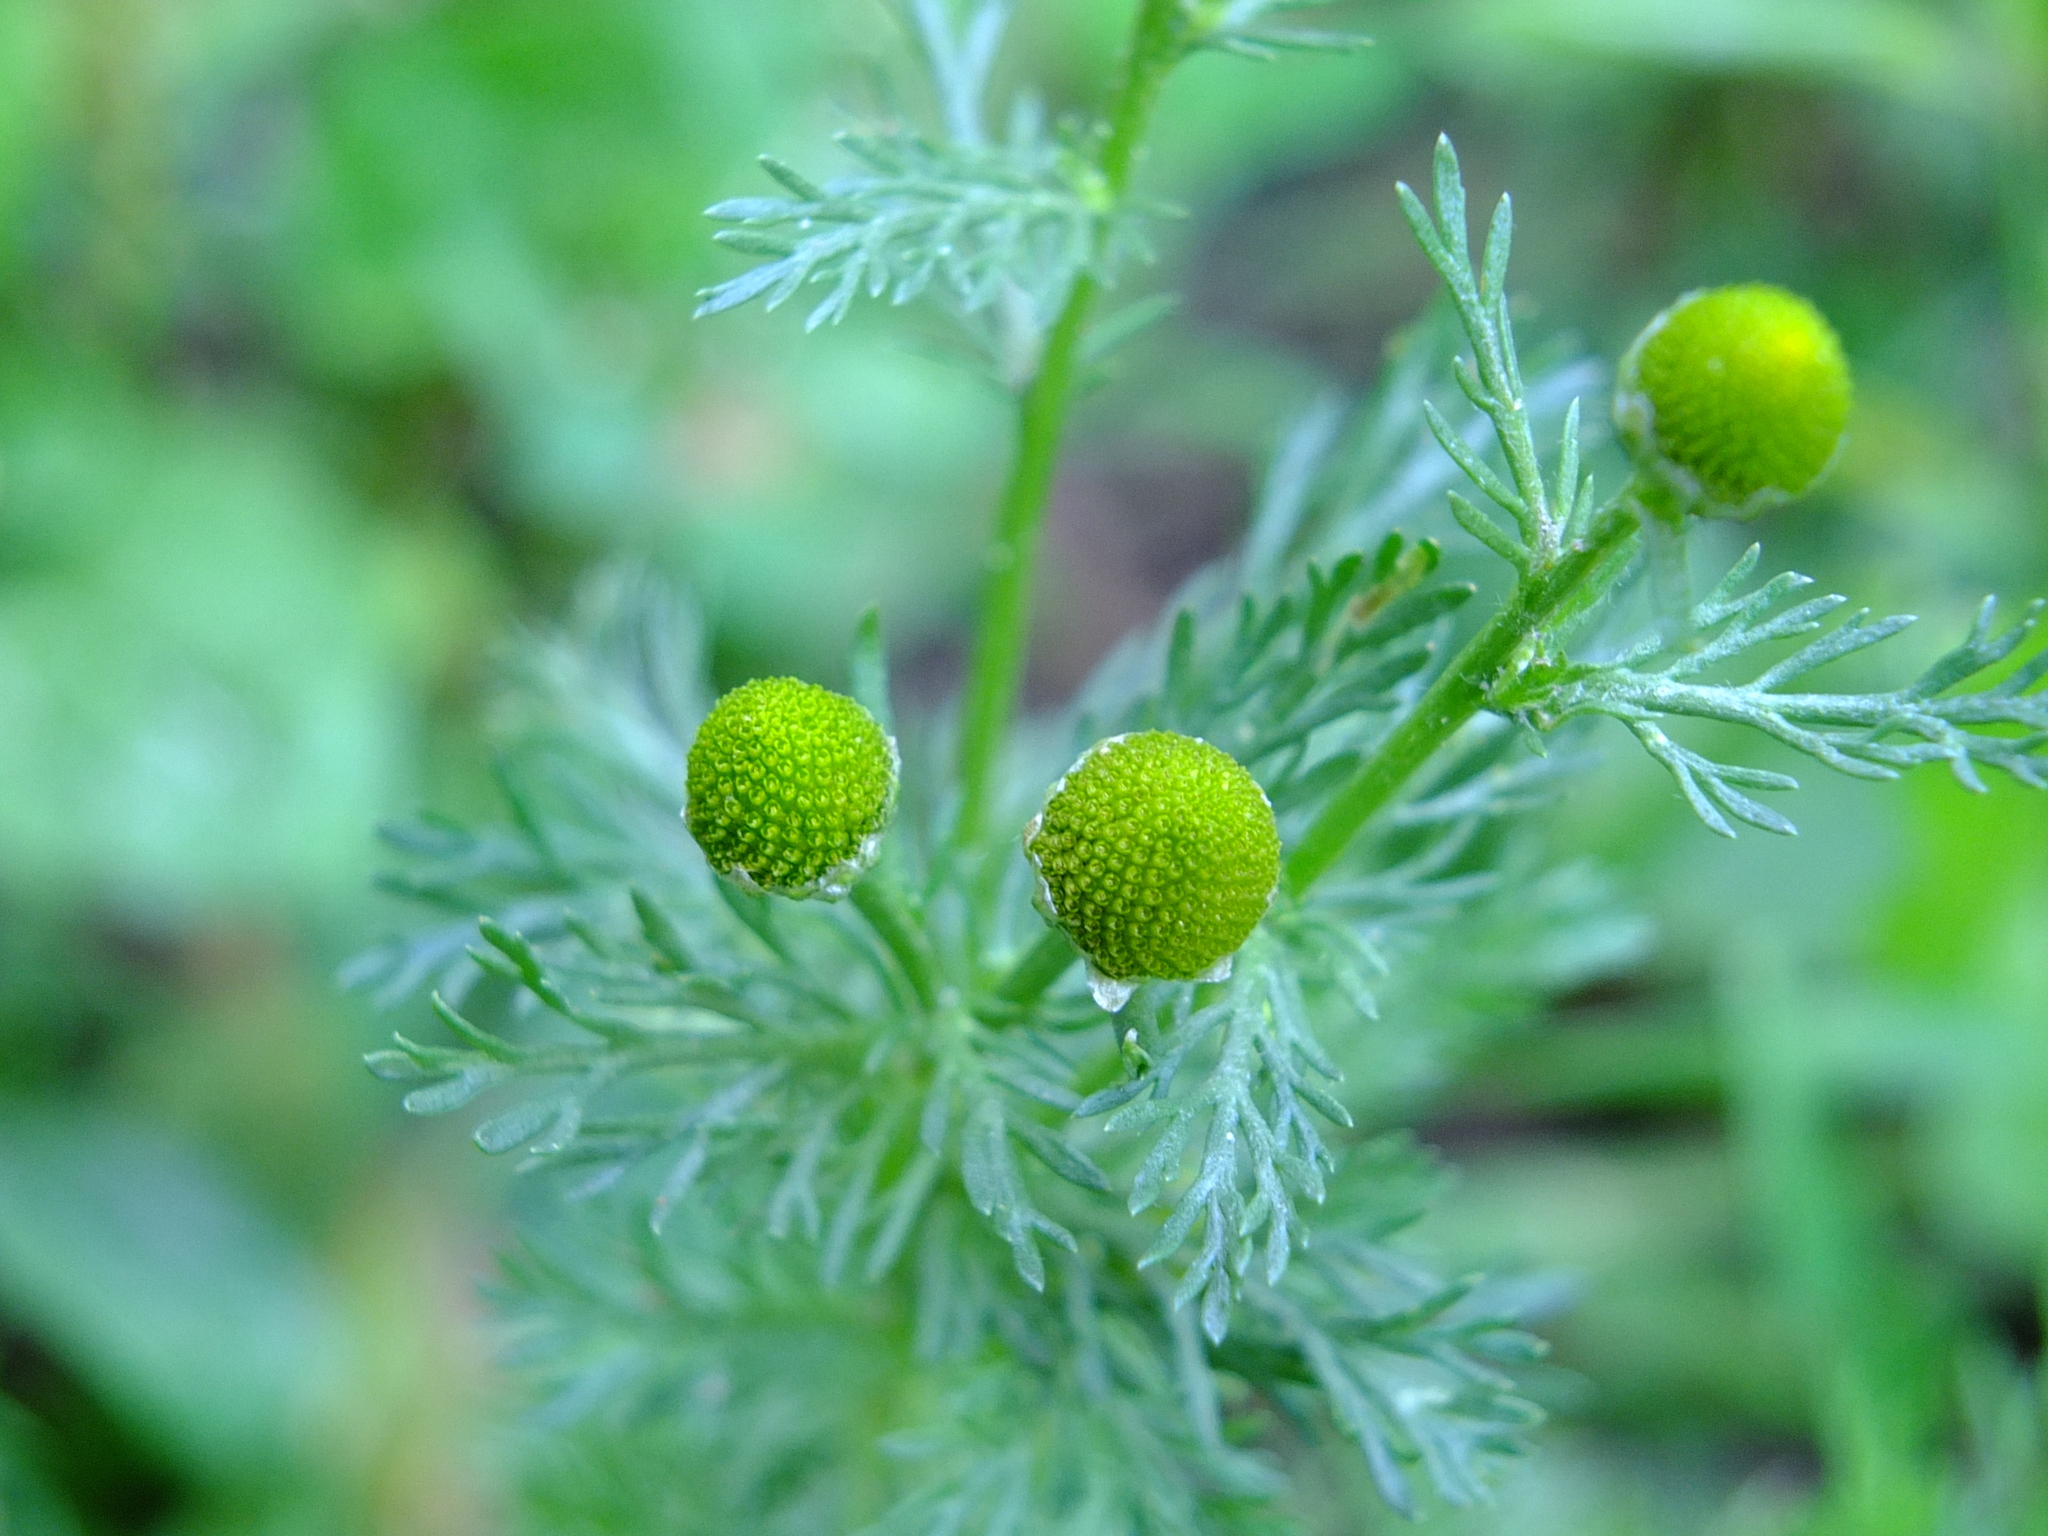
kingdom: Plantae
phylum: Tracheophyta
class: Magnoliopsida
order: Asterales
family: Asteraceae
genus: Matricaria
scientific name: Matricaria discoidea
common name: Disc mayweed
